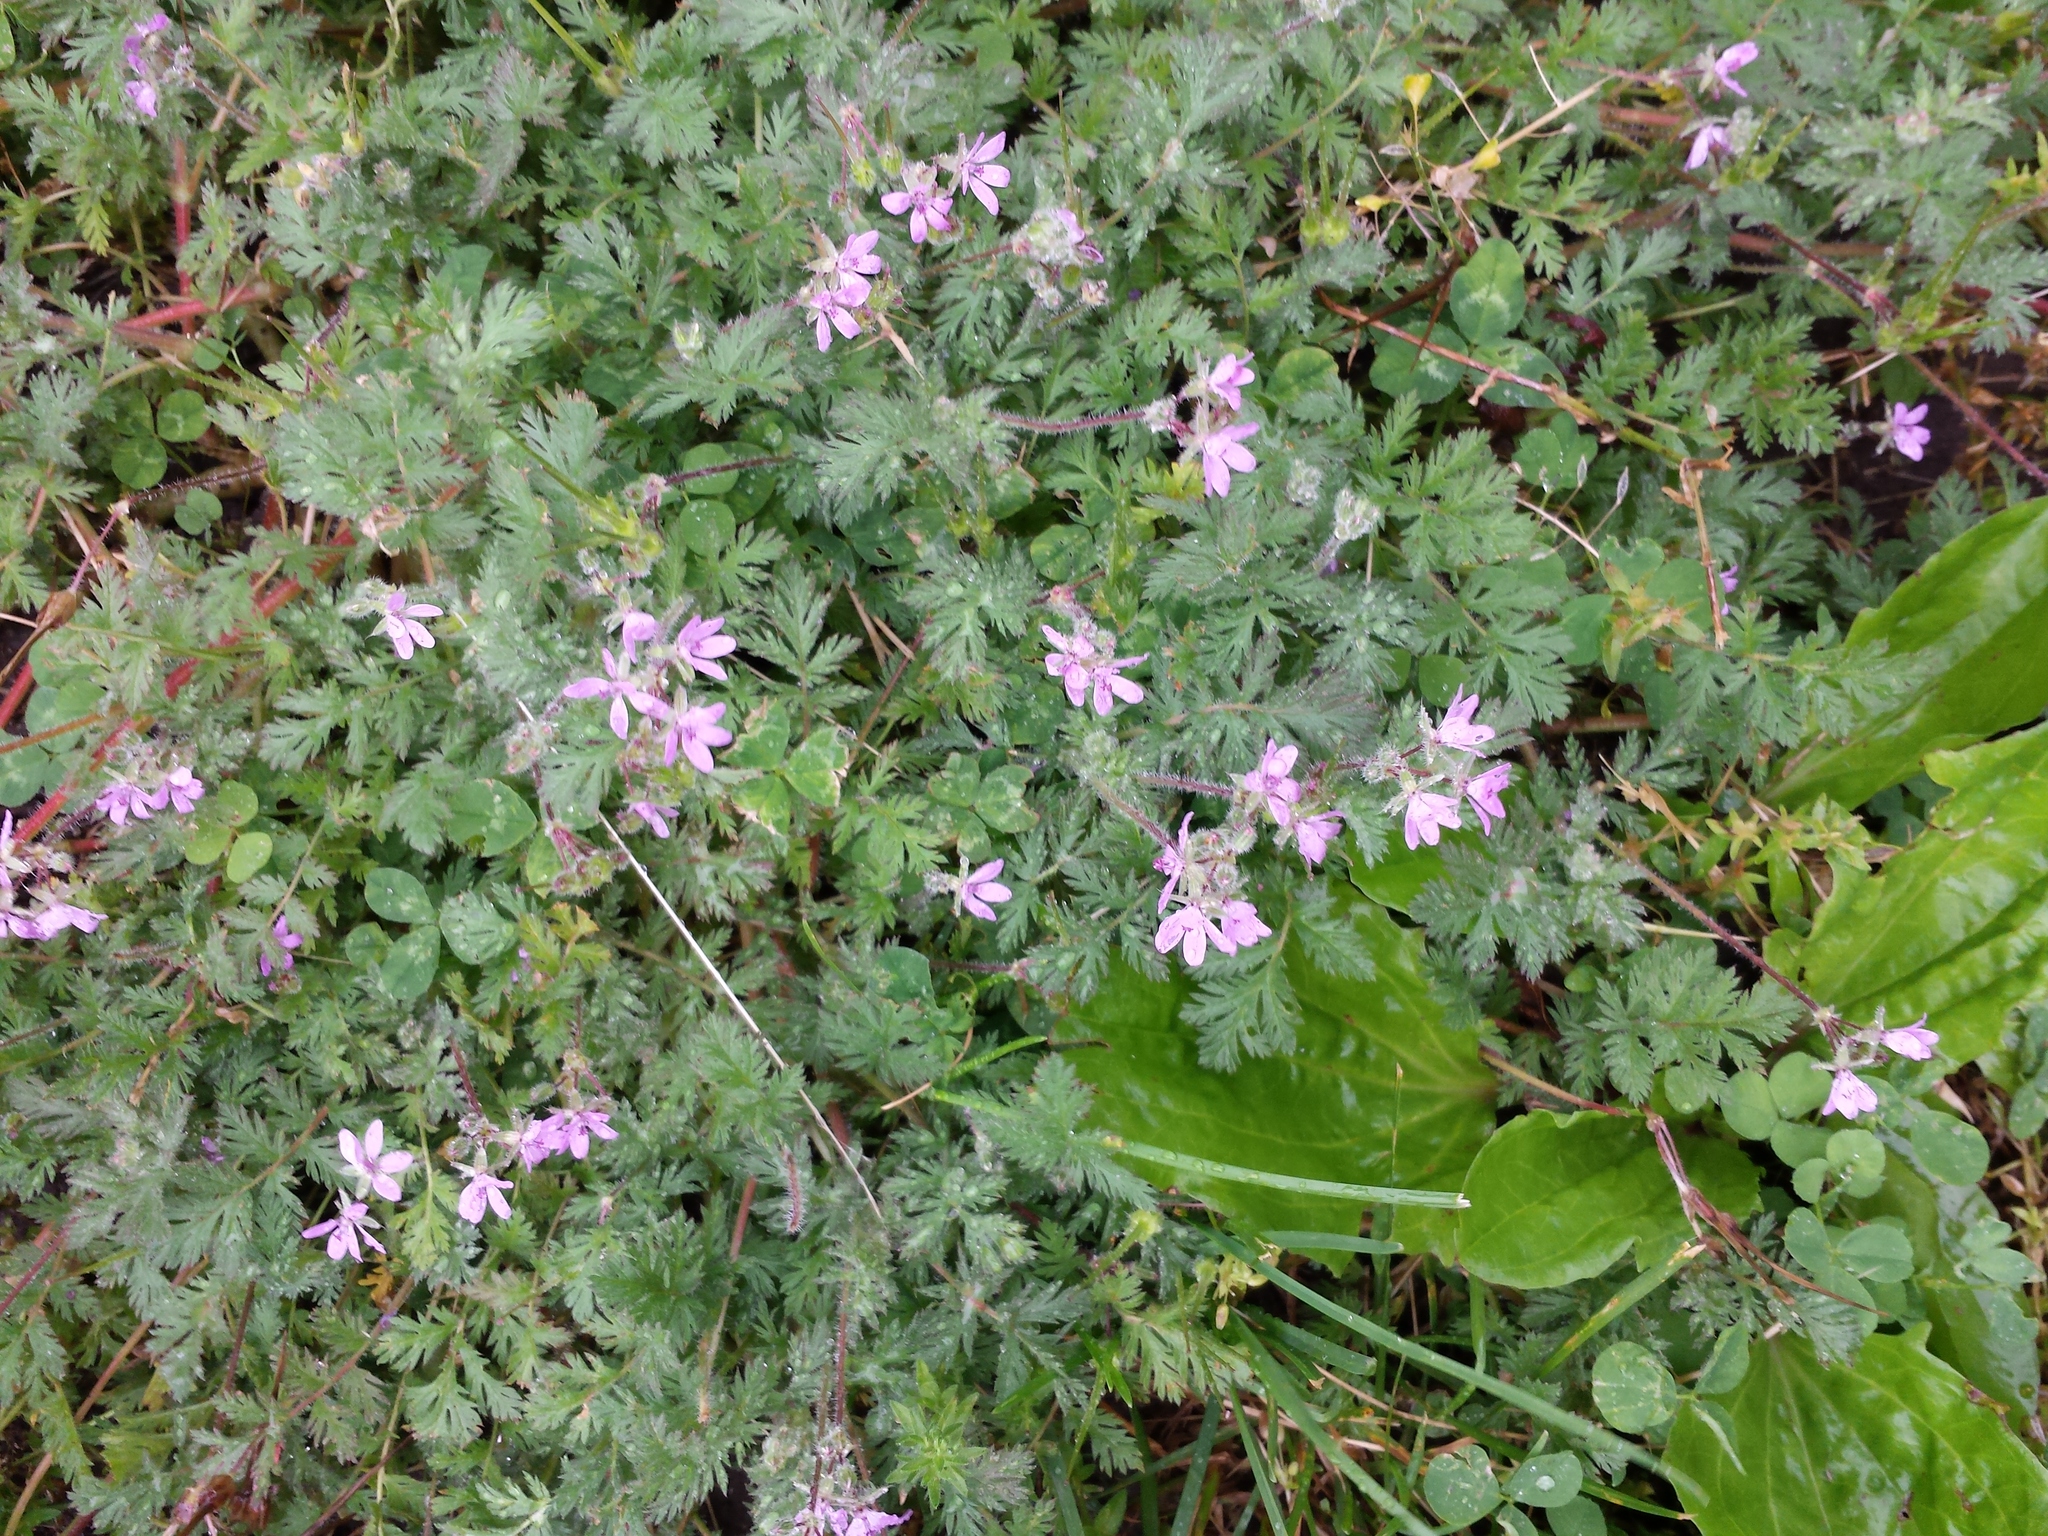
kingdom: Plantae
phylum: Tracheophyta
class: Magnoliopsida
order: Geraniales
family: Geraniaceae
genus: Erodium
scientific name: Erodium cicutarium
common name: Common stork's-bill
